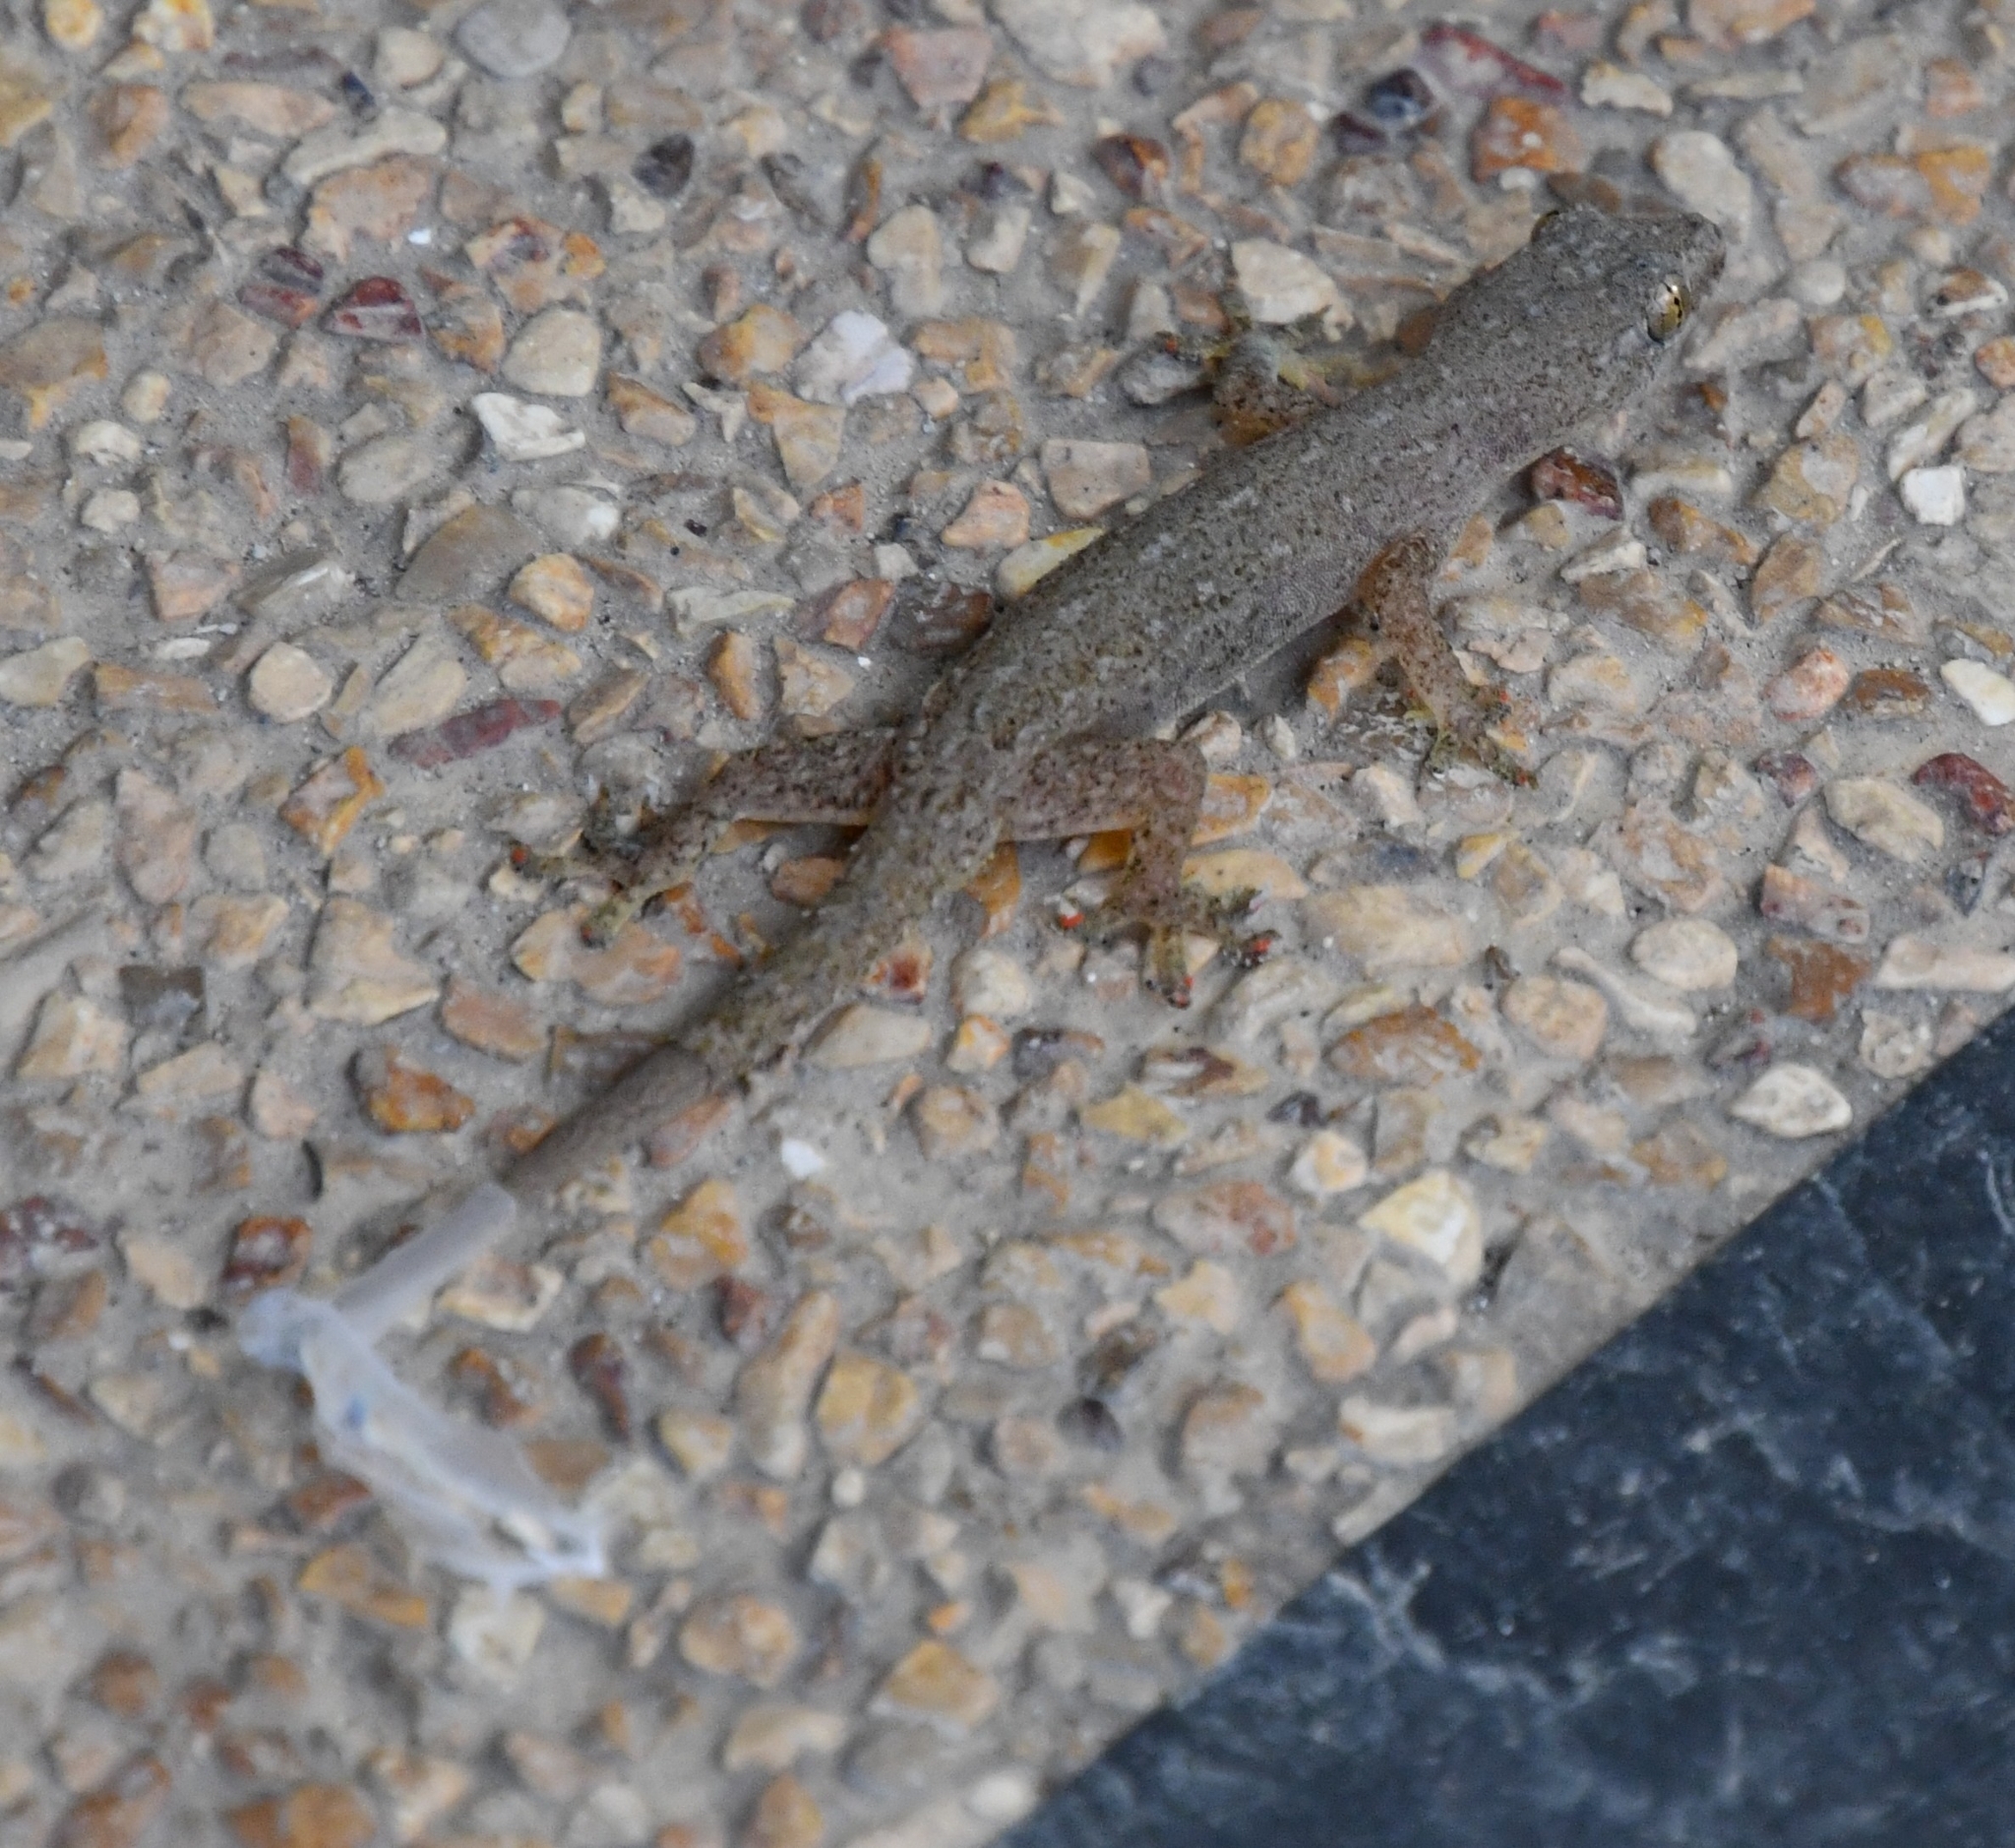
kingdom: Animalia
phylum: Chordata
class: Squamata
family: Gekkonidae
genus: Hemidactylus
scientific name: Hemidactylus frenatus
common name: Common house gecko
